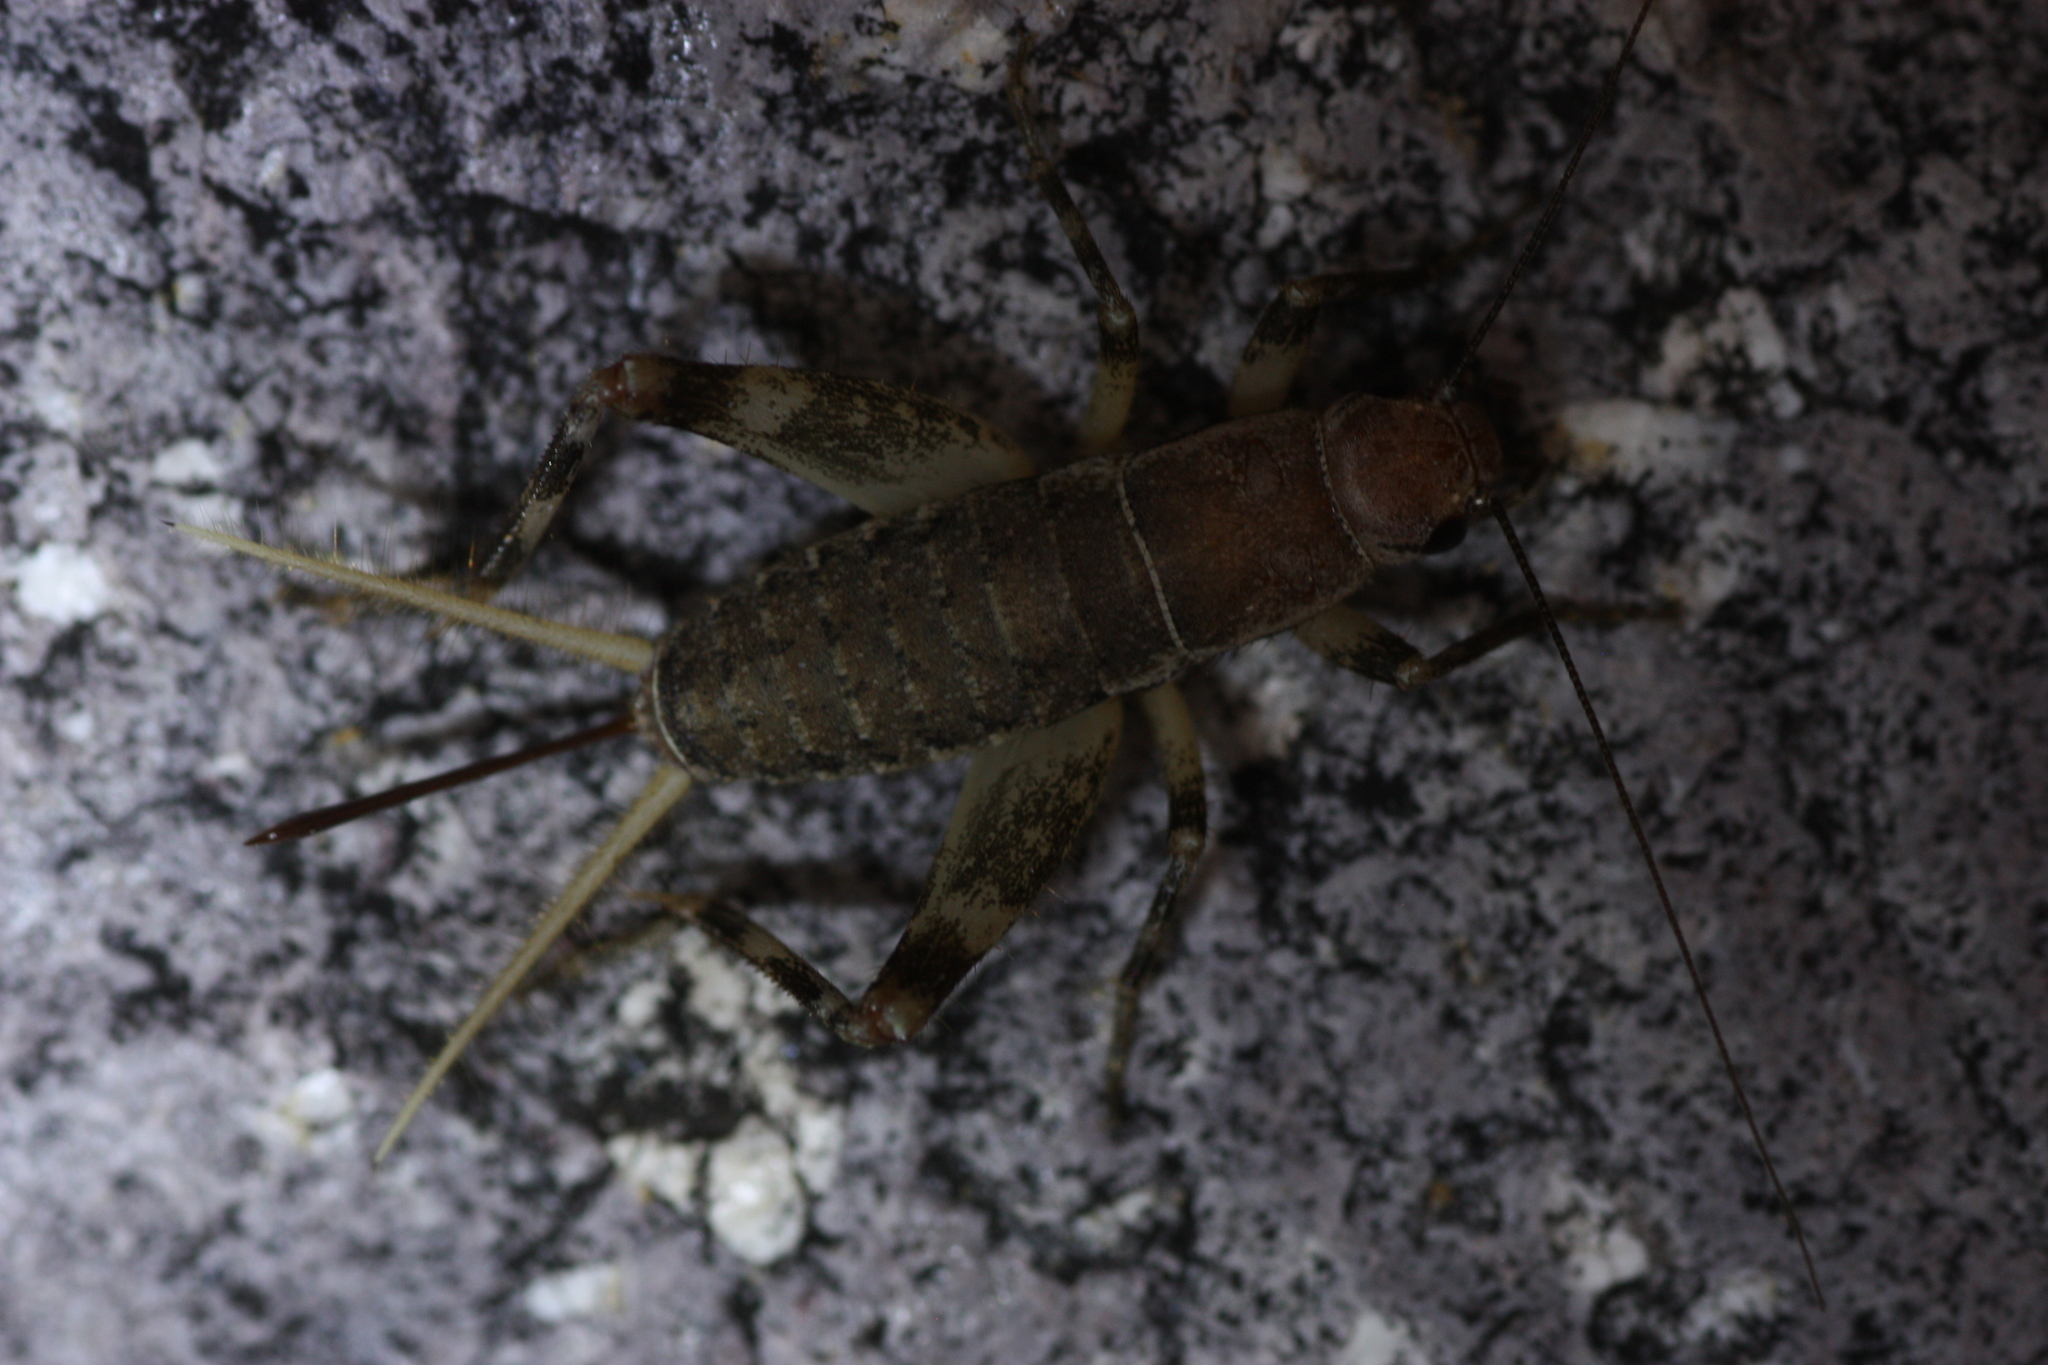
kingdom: Animalia
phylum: Arthropoda
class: Insecta
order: Orthoptera
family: Mogoplistidae
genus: Hoplosphyrum
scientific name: Hoplosphyrum boreale
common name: Long-winged scaly cricket
